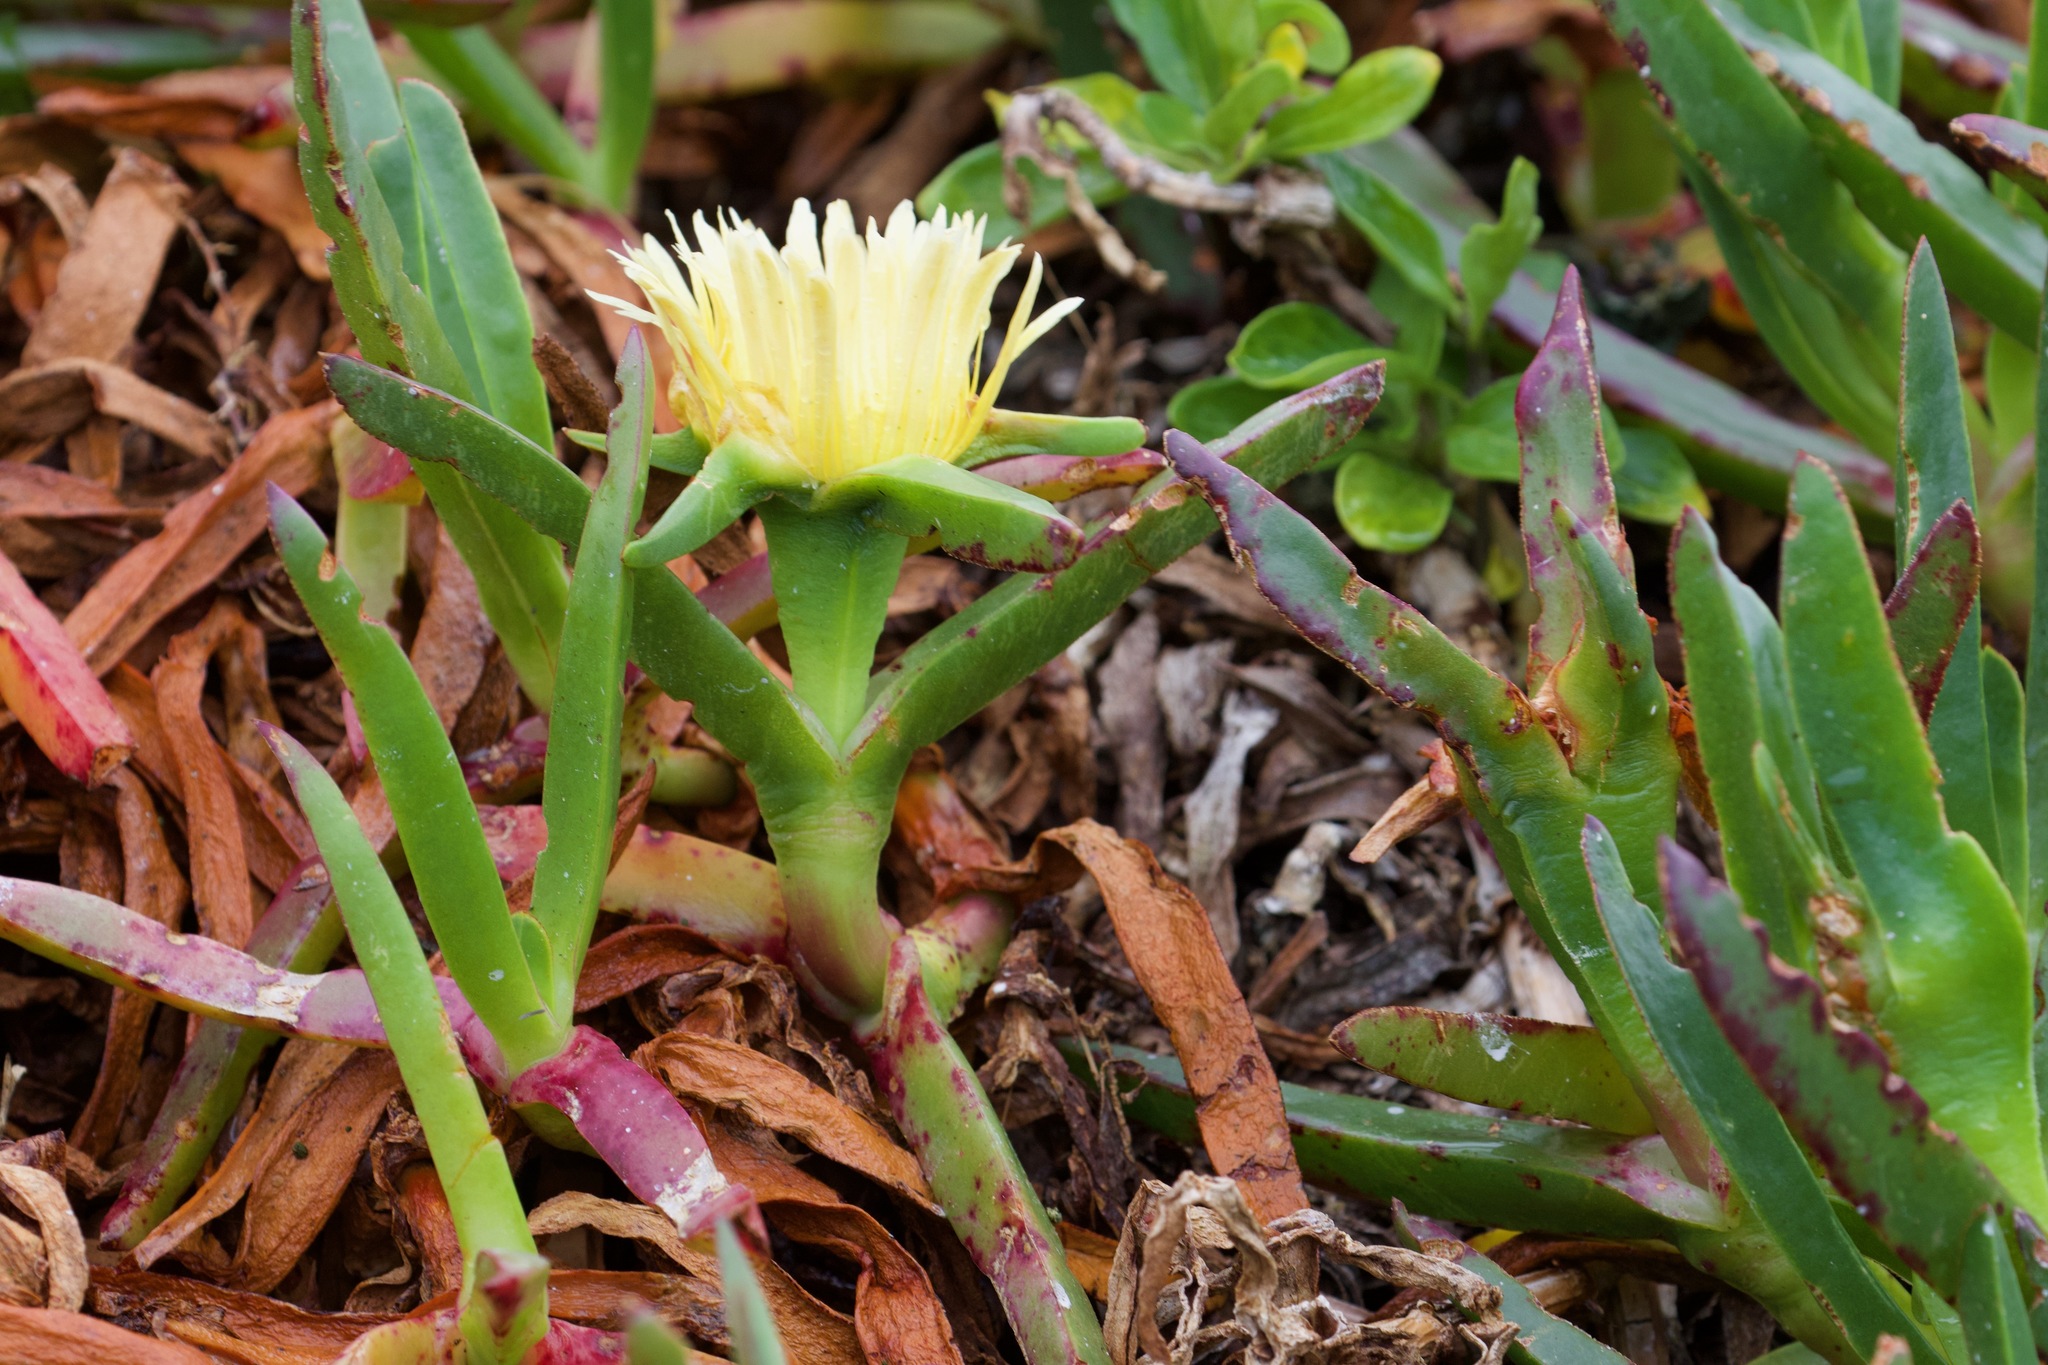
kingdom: Plantae
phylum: Tracheophyta
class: Magnoliopsida
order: Caryophyllales
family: Aizoaceae
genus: Carpobrotus
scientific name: Carpobrotus edulis
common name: Hottentot-fig
